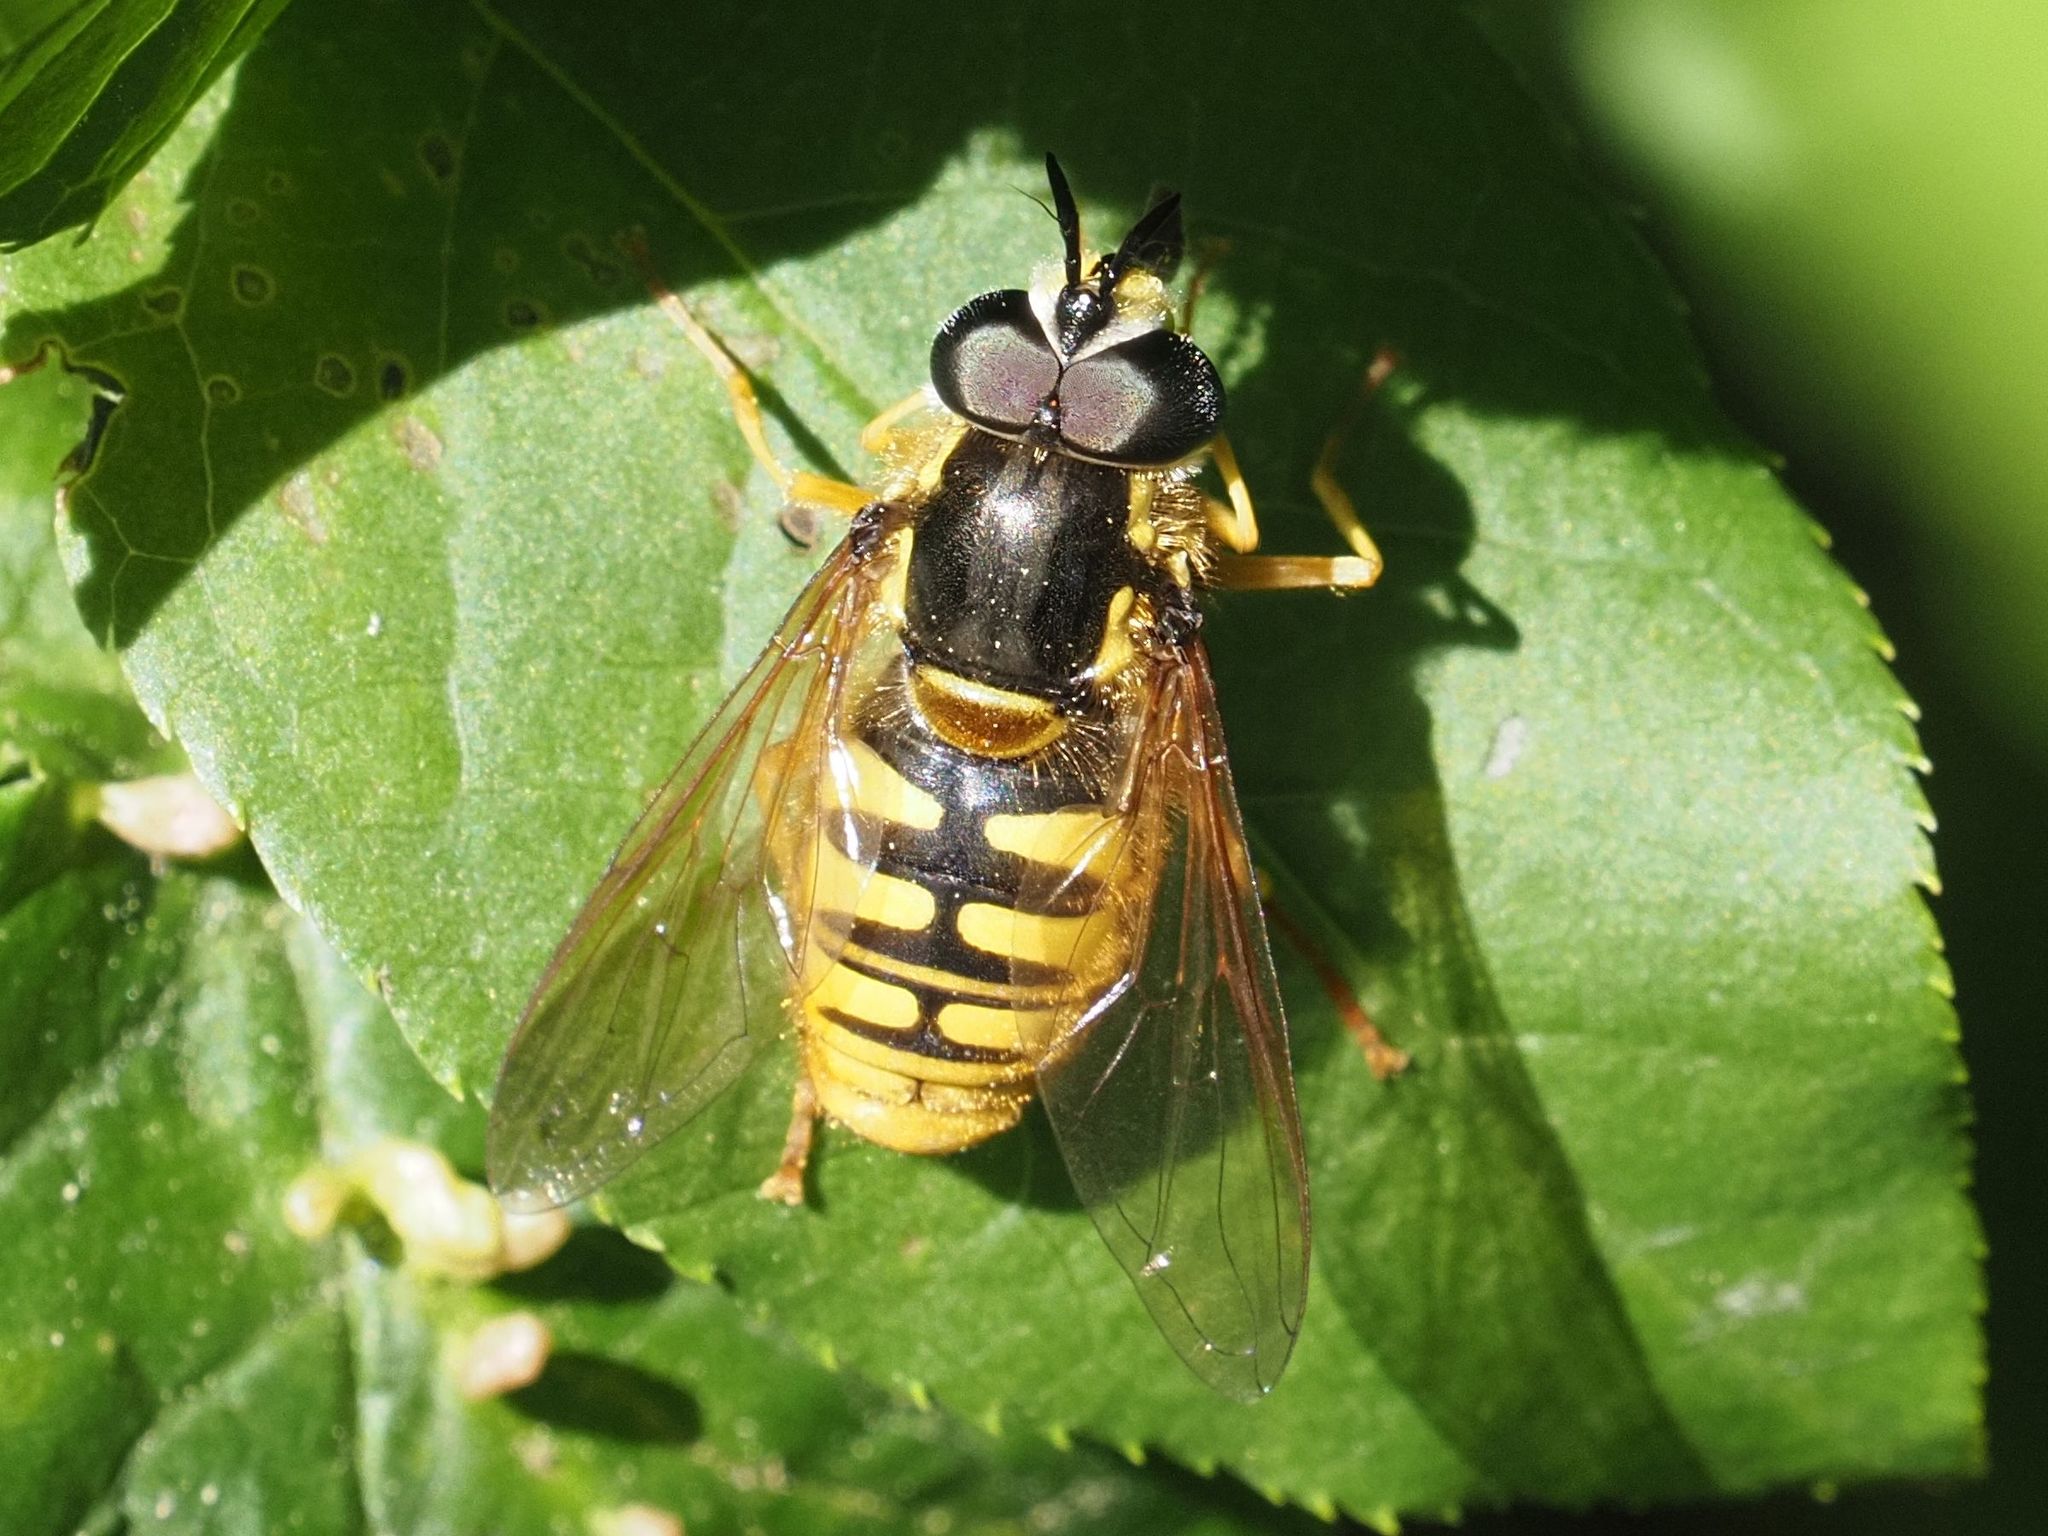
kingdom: Animalia
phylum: Arthropoda
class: Insecta
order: Diptera
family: Syrphidae
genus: Chrysotoxum
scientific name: Chrysotoxum cautum
